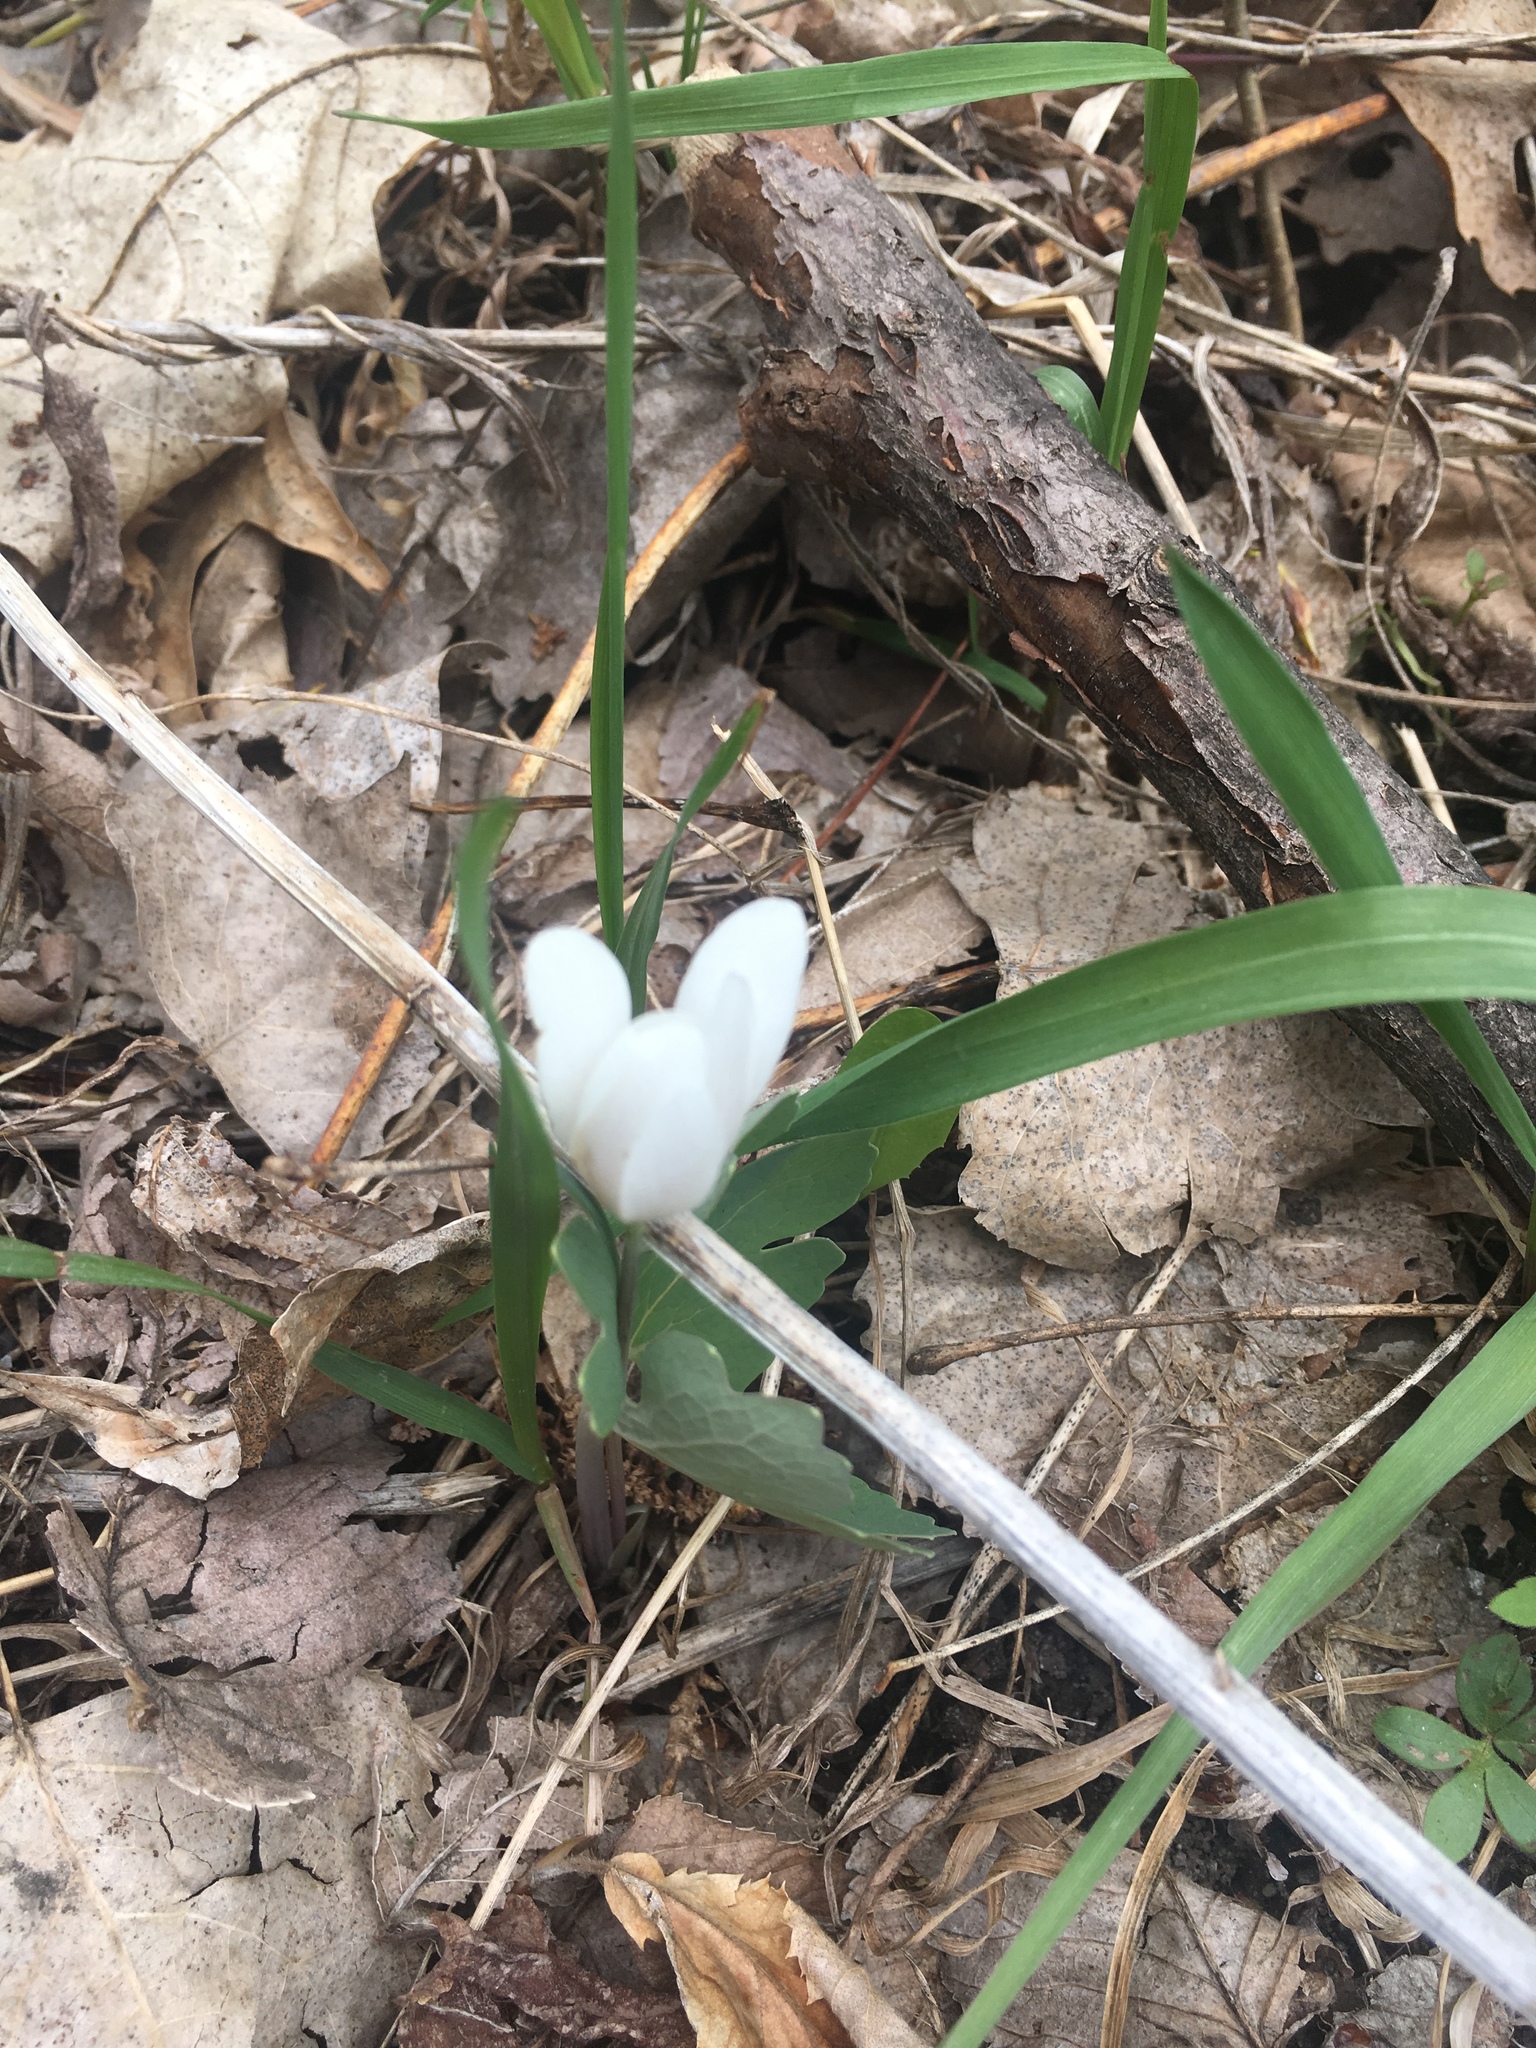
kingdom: Plantae
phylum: Tracheophyta
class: Magnoliopsida
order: Ranunculales
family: Papaveraceae
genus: Sanguinaria
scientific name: Sanguinaria canadensis
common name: Bloodroot
